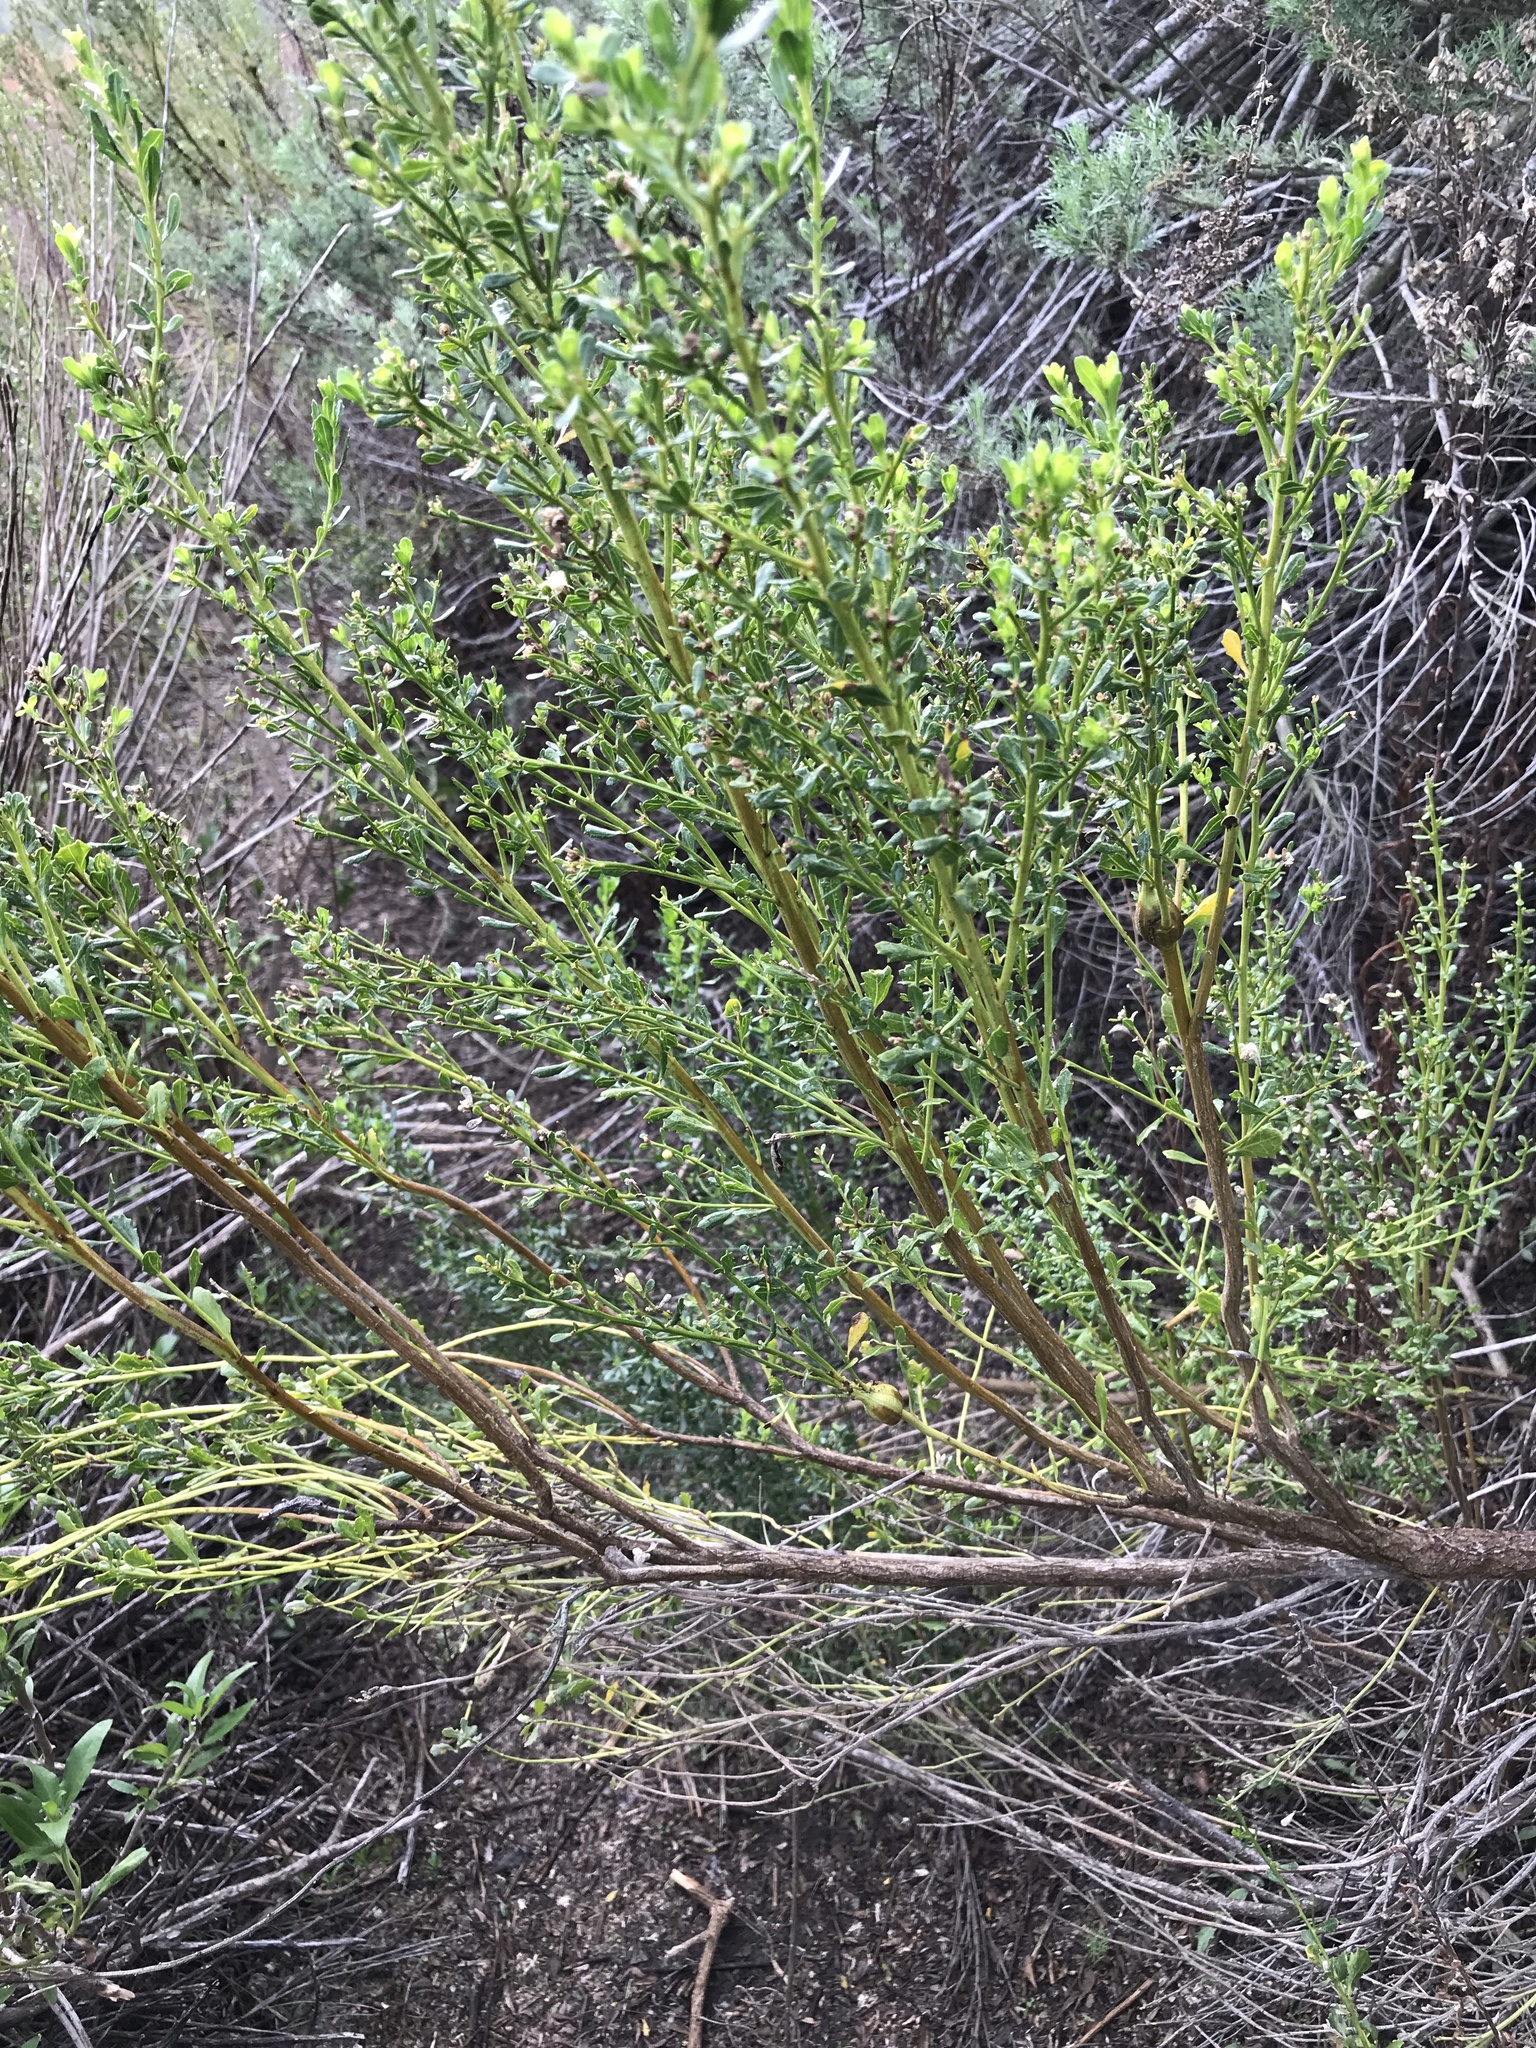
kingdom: Animalia
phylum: Arthropoda
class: Insecta
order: Lepidoptera
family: Gelechiidae
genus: Gnorimoschema
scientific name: Gnorimoschema baccharisella
